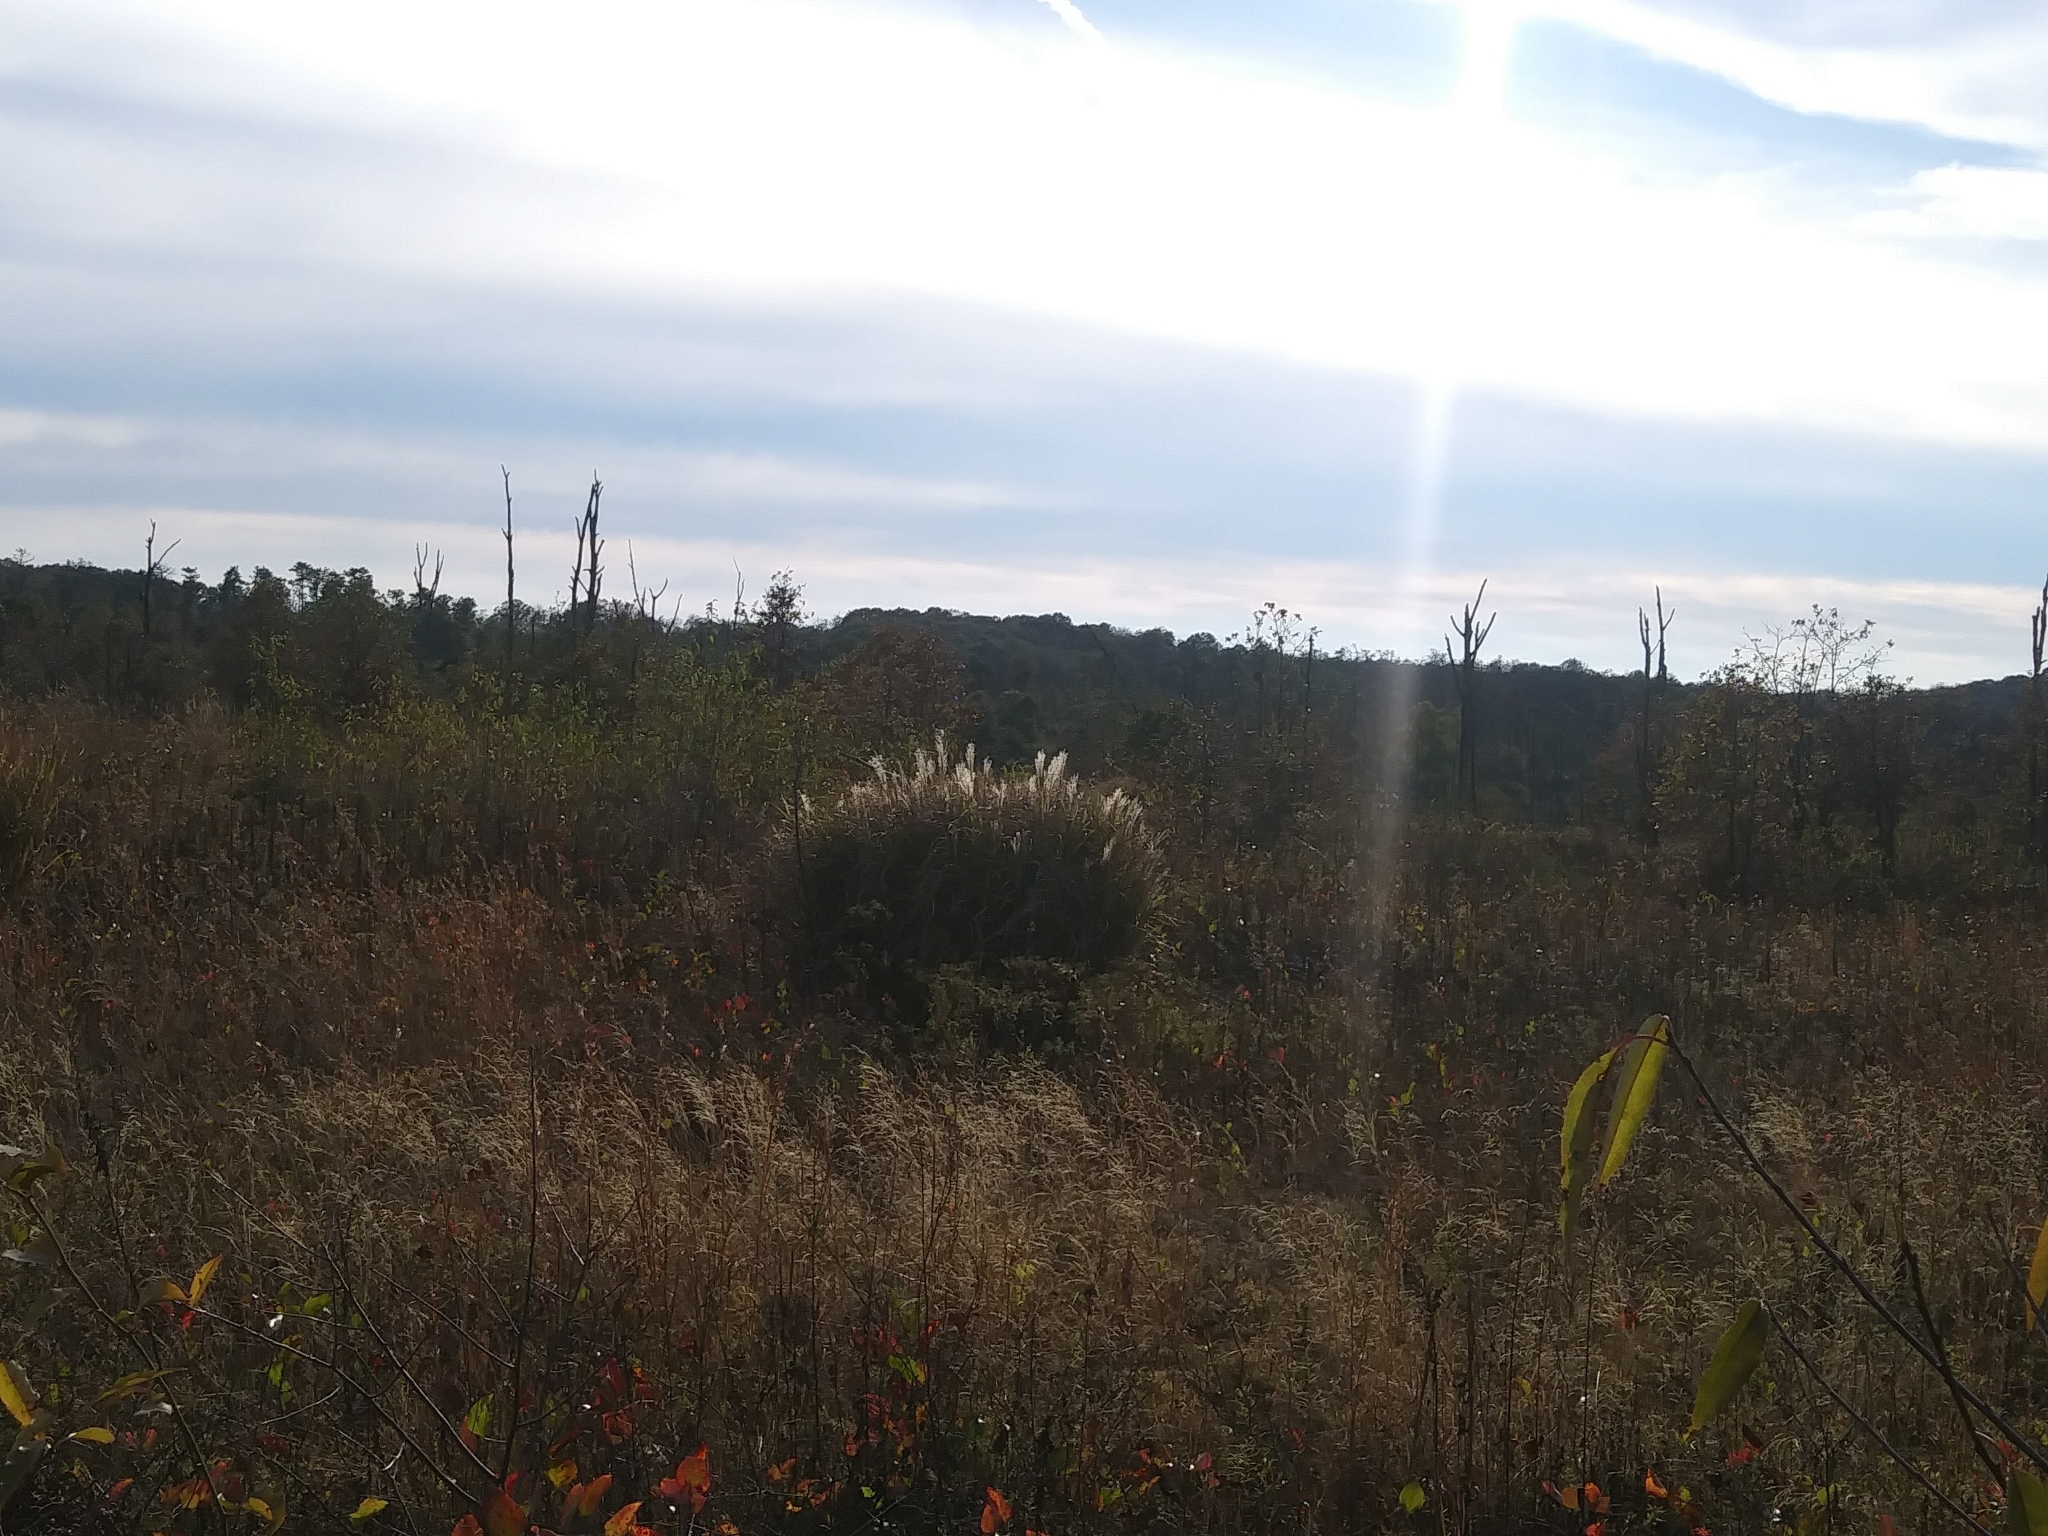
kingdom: Plantae
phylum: Tracheophyta
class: Liliopsida
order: Poales
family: Poaceae
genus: Miscanthus
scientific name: Miscanthus sinensis
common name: Chinese silvergrass
